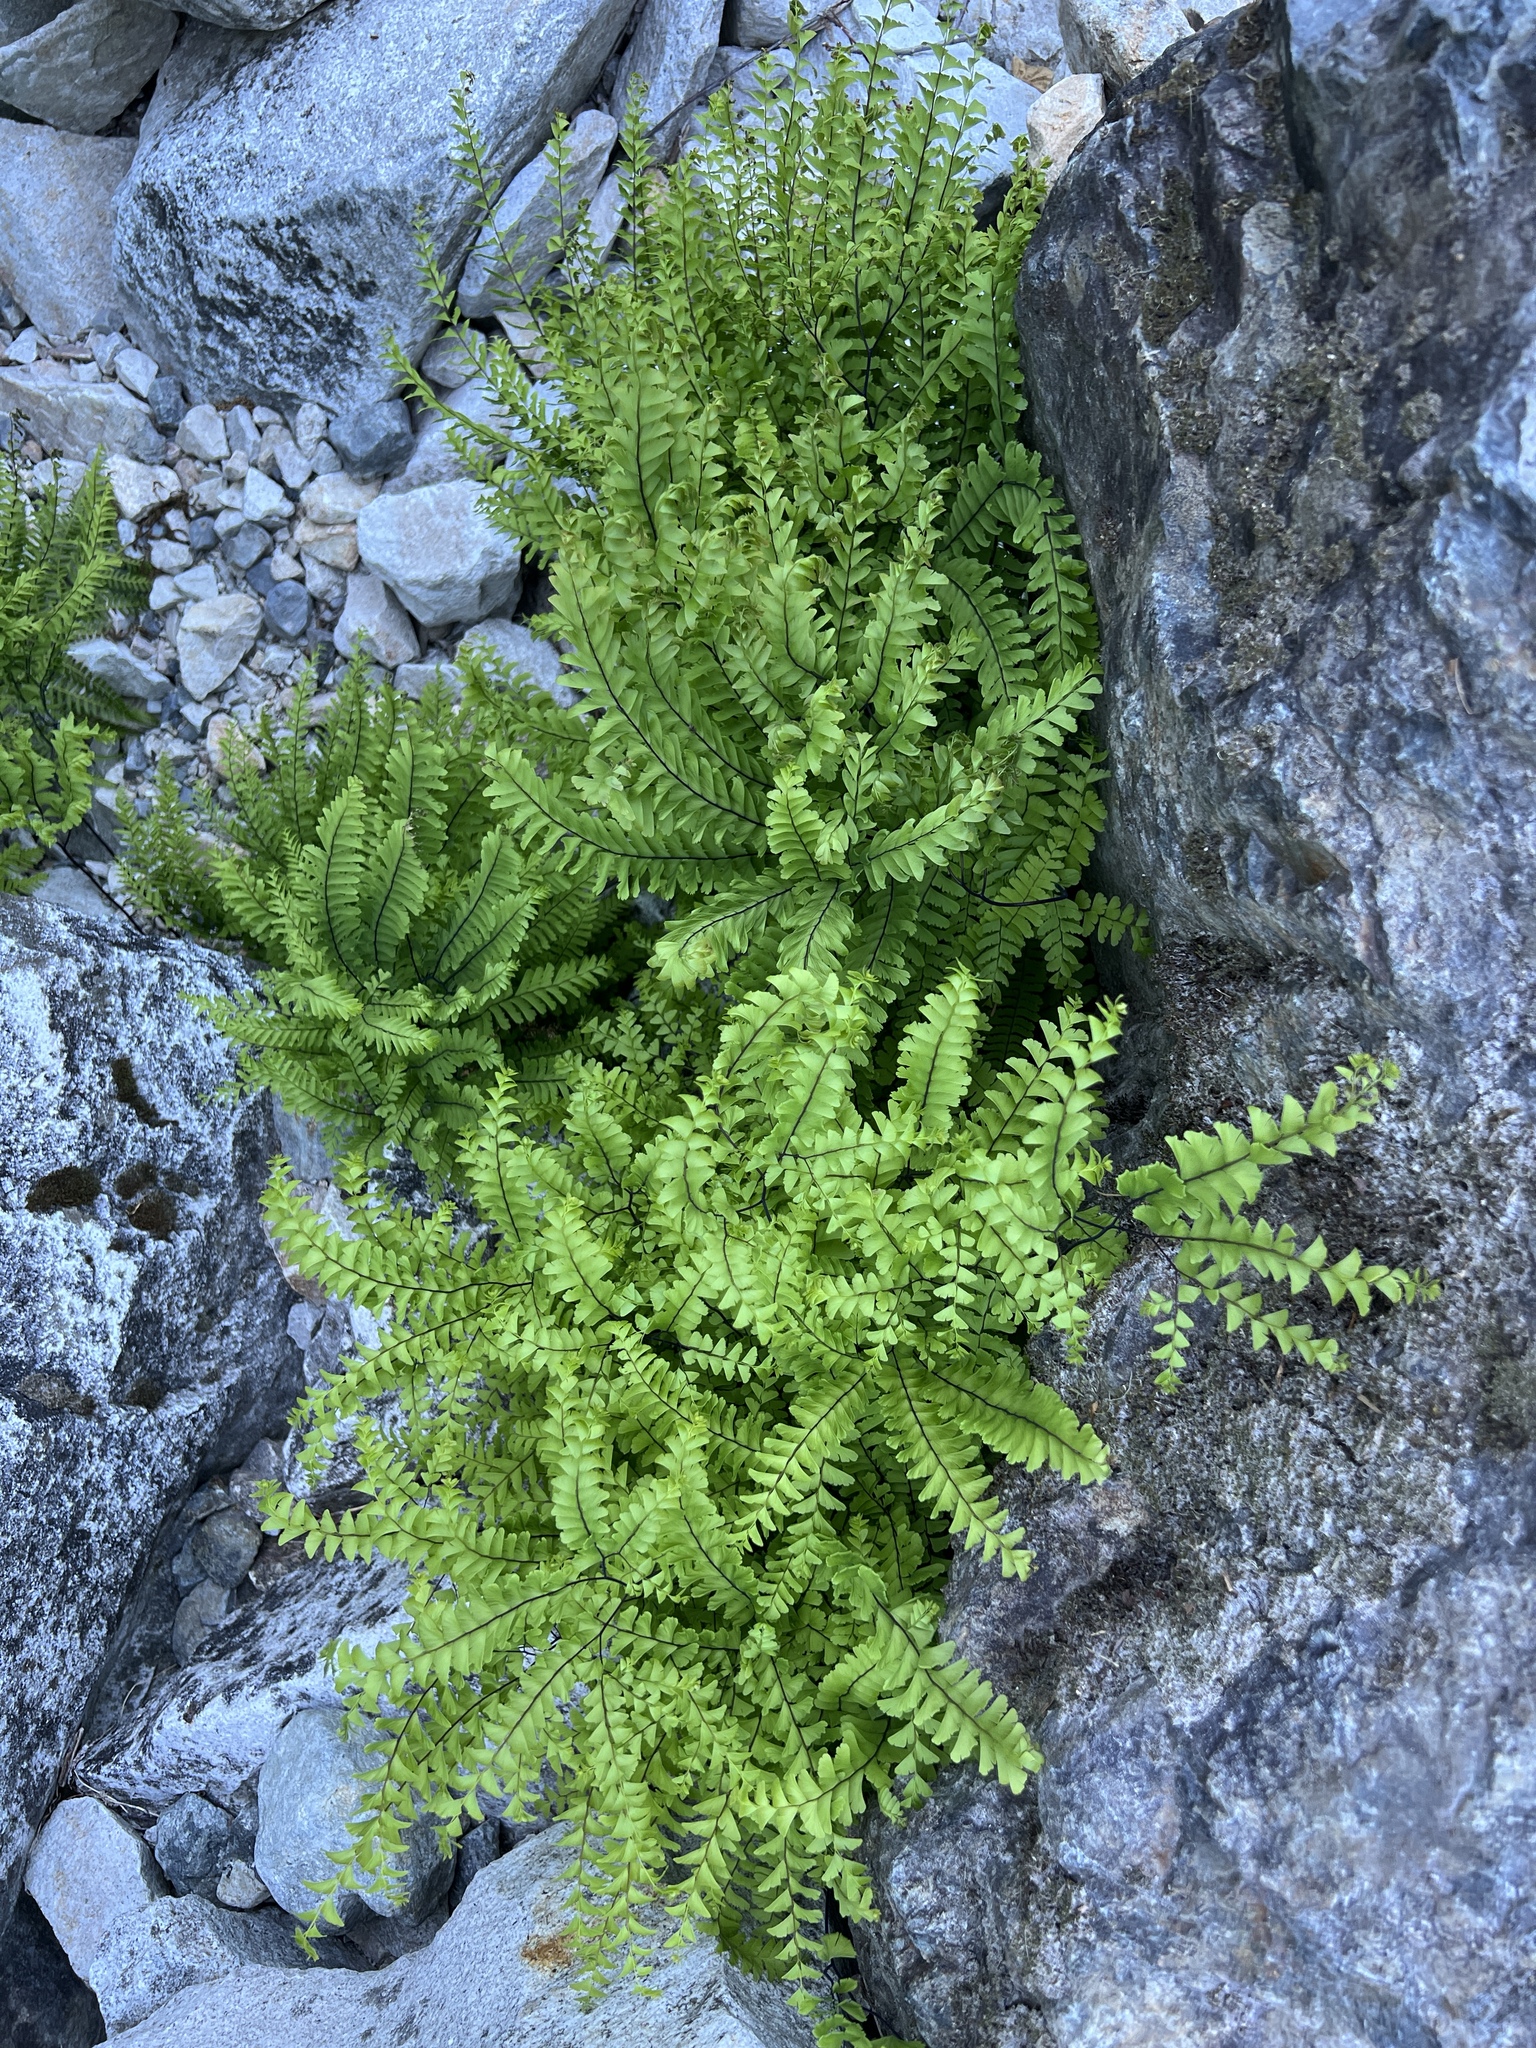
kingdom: Plantae
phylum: Tracheophyta
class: Polypodiopsida
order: Polypodiales
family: Pteridaceae
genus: Adiantum
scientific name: Adiantum aleuticum
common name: Aleutian maidenhair fern
